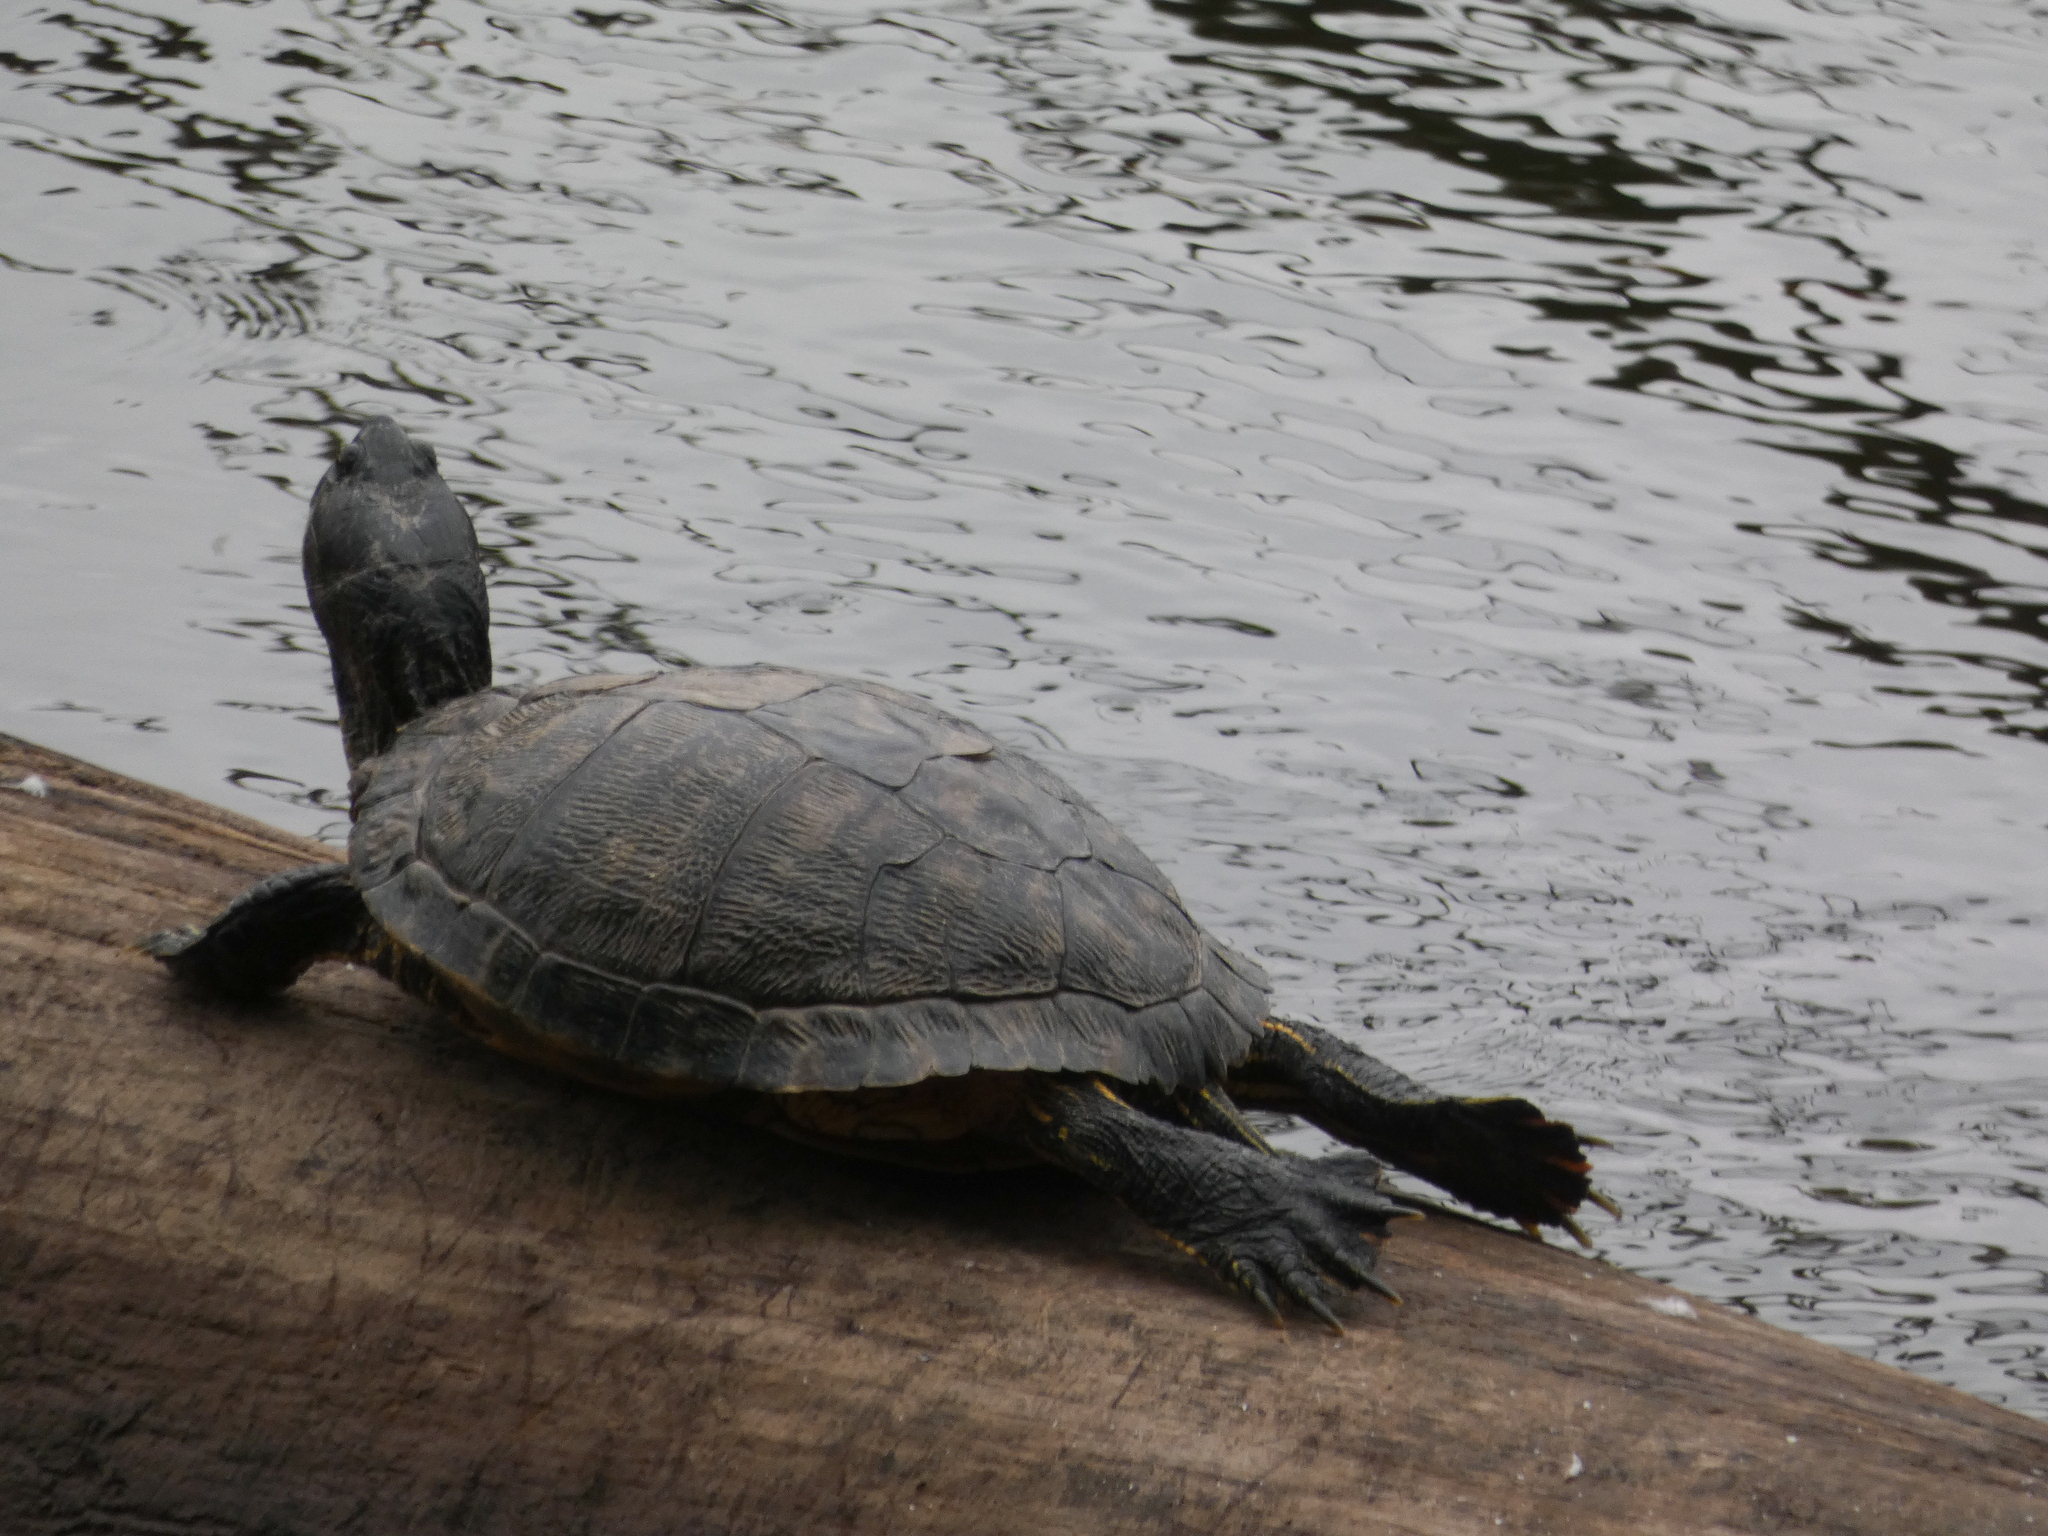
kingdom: Animalia
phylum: Chordata
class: Testudines
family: Emydidae
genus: Trachemys
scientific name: Trachemys scripta
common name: Slider
